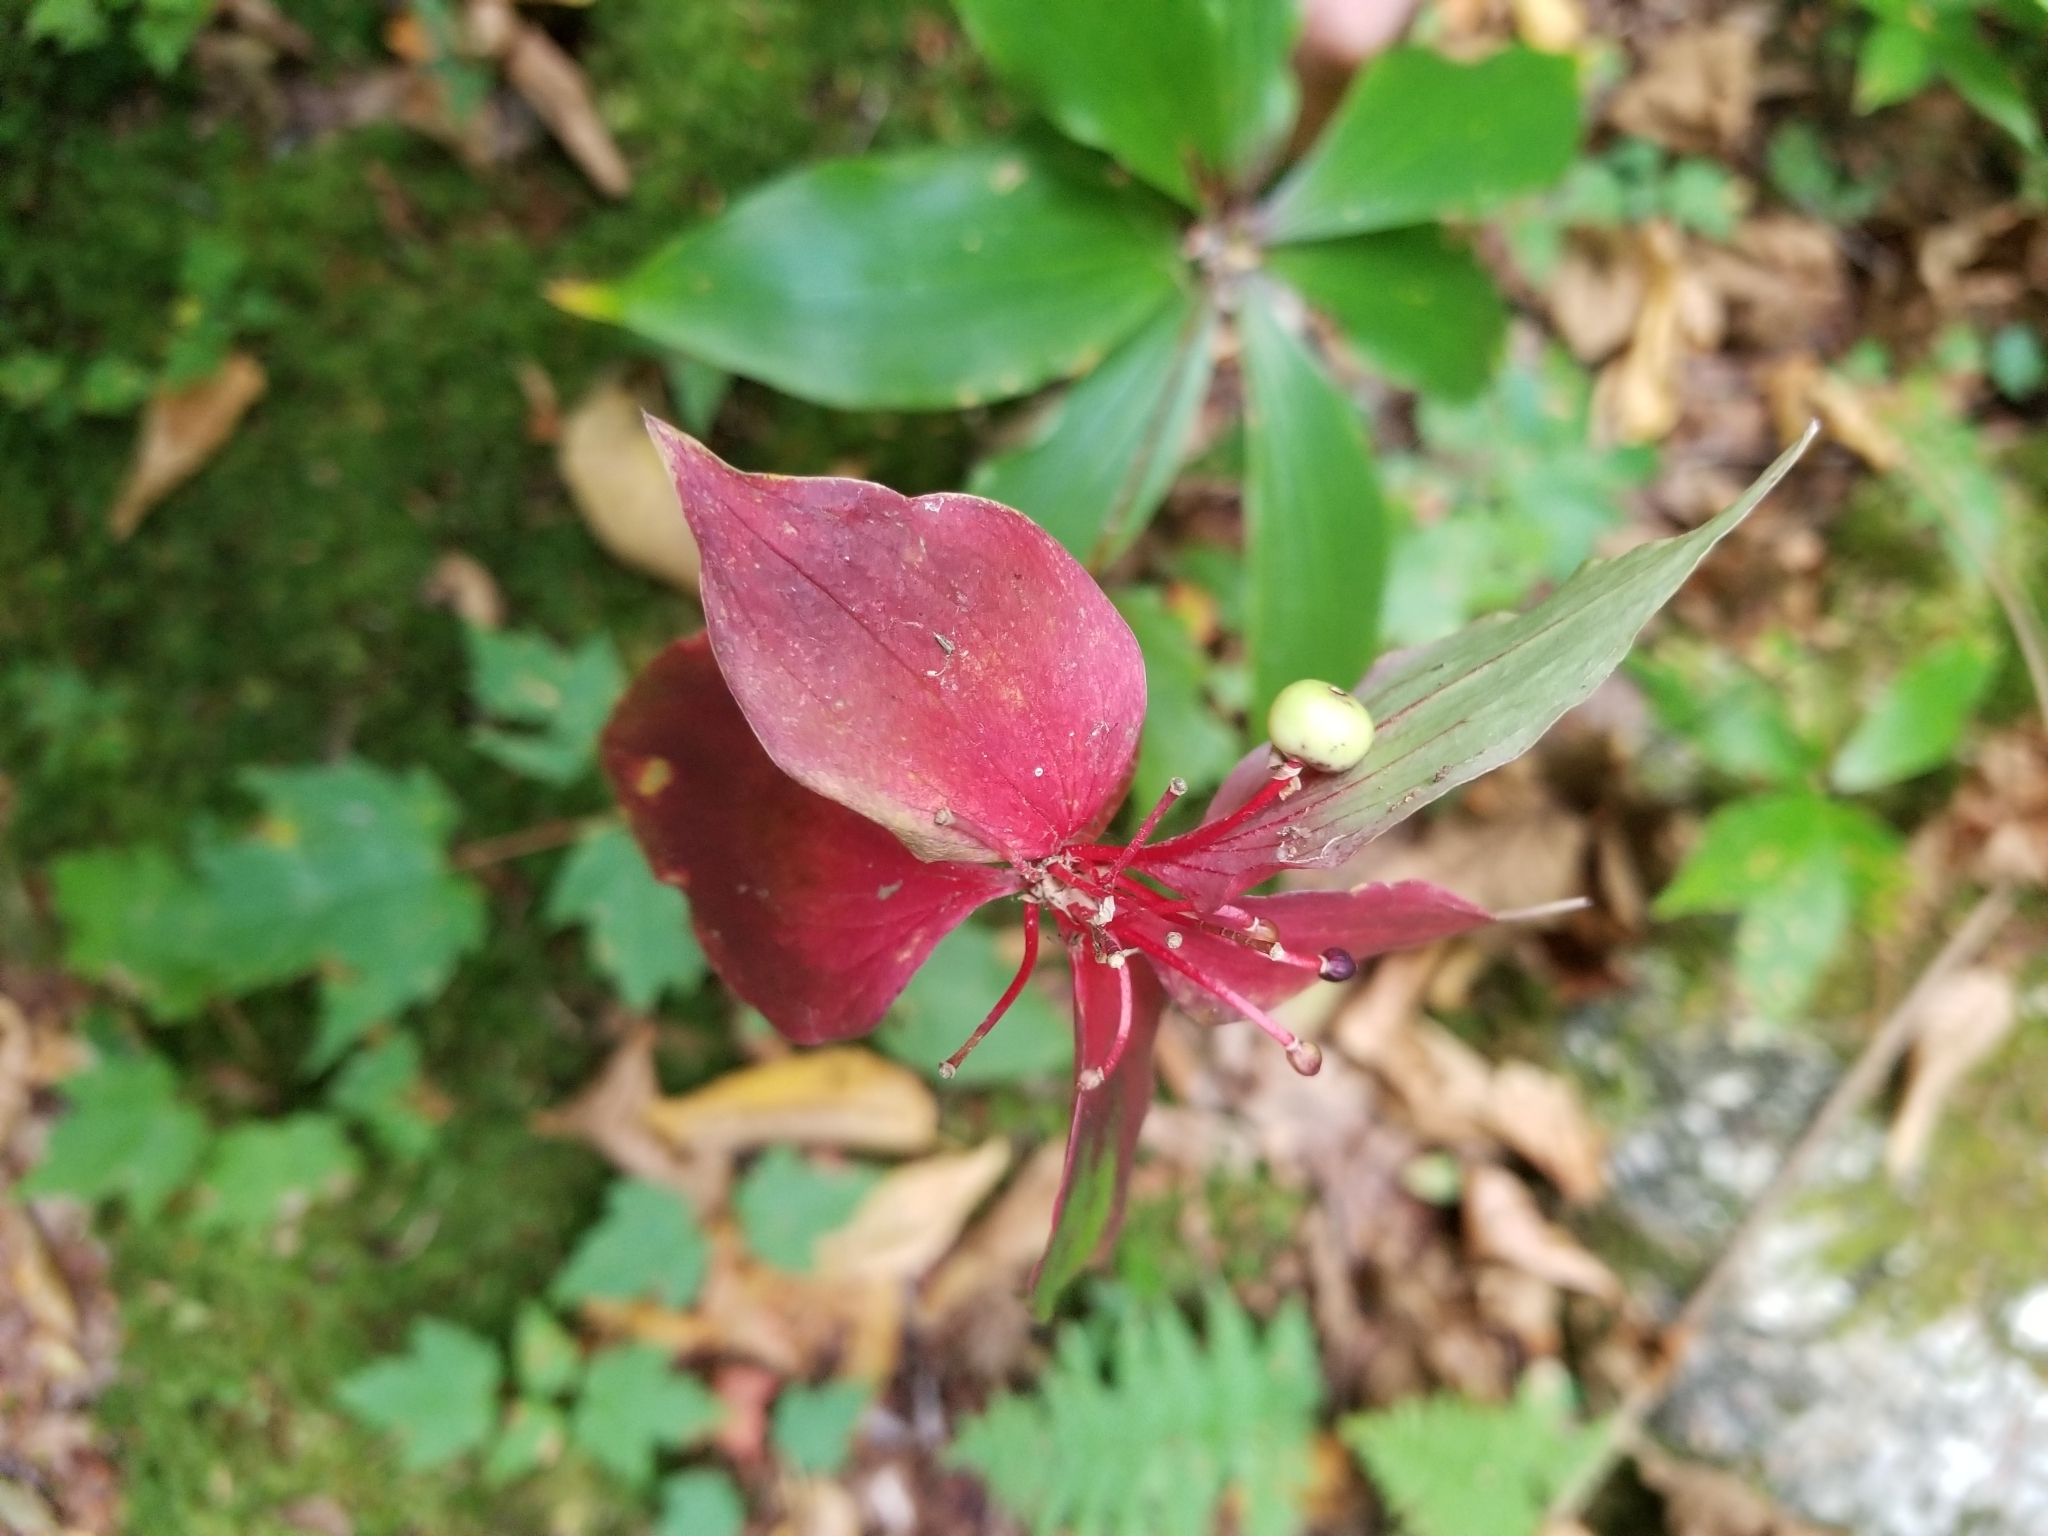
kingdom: Plantae
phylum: Tracheophyta
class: Liliopsida
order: Liliales
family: Liliaceae
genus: Medeola
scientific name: Medeola virginiana
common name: Indian cucumber-root
